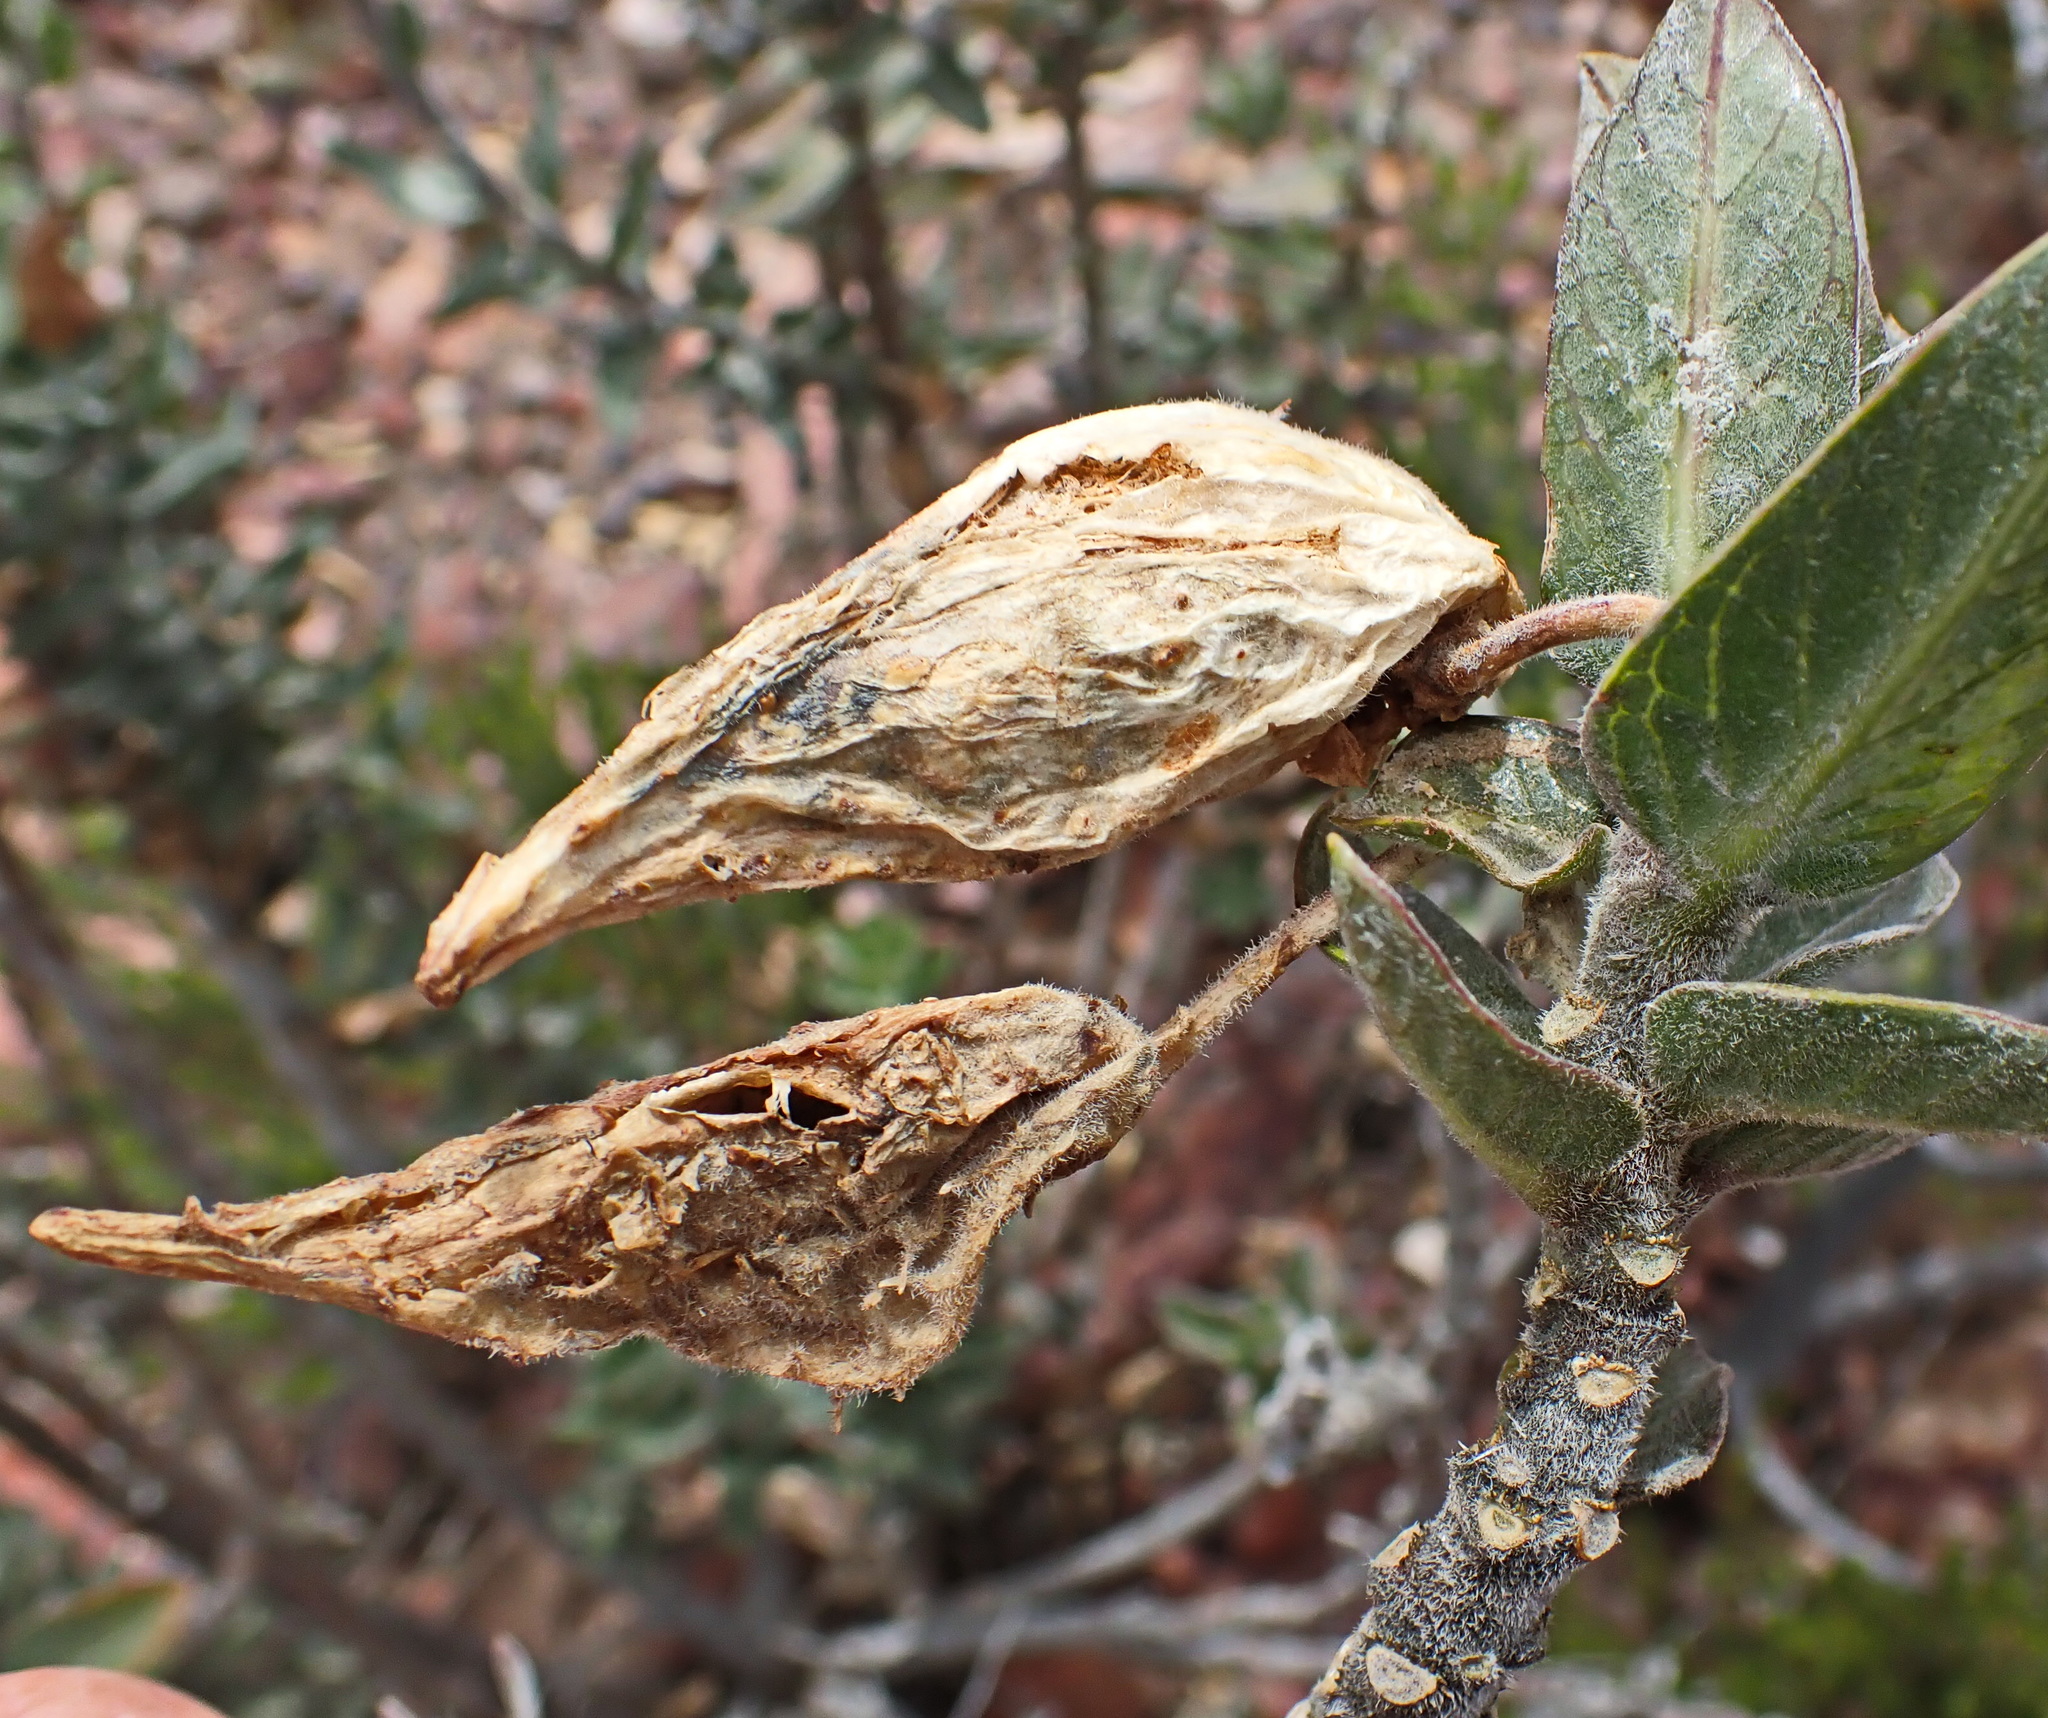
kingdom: Plantae
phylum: Tracheophyta
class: Magnoliopsida
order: Gentianales
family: Apocynaceae
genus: Gomphocarpus
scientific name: Gomphocarpus cancellatus
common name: Wild cotton
